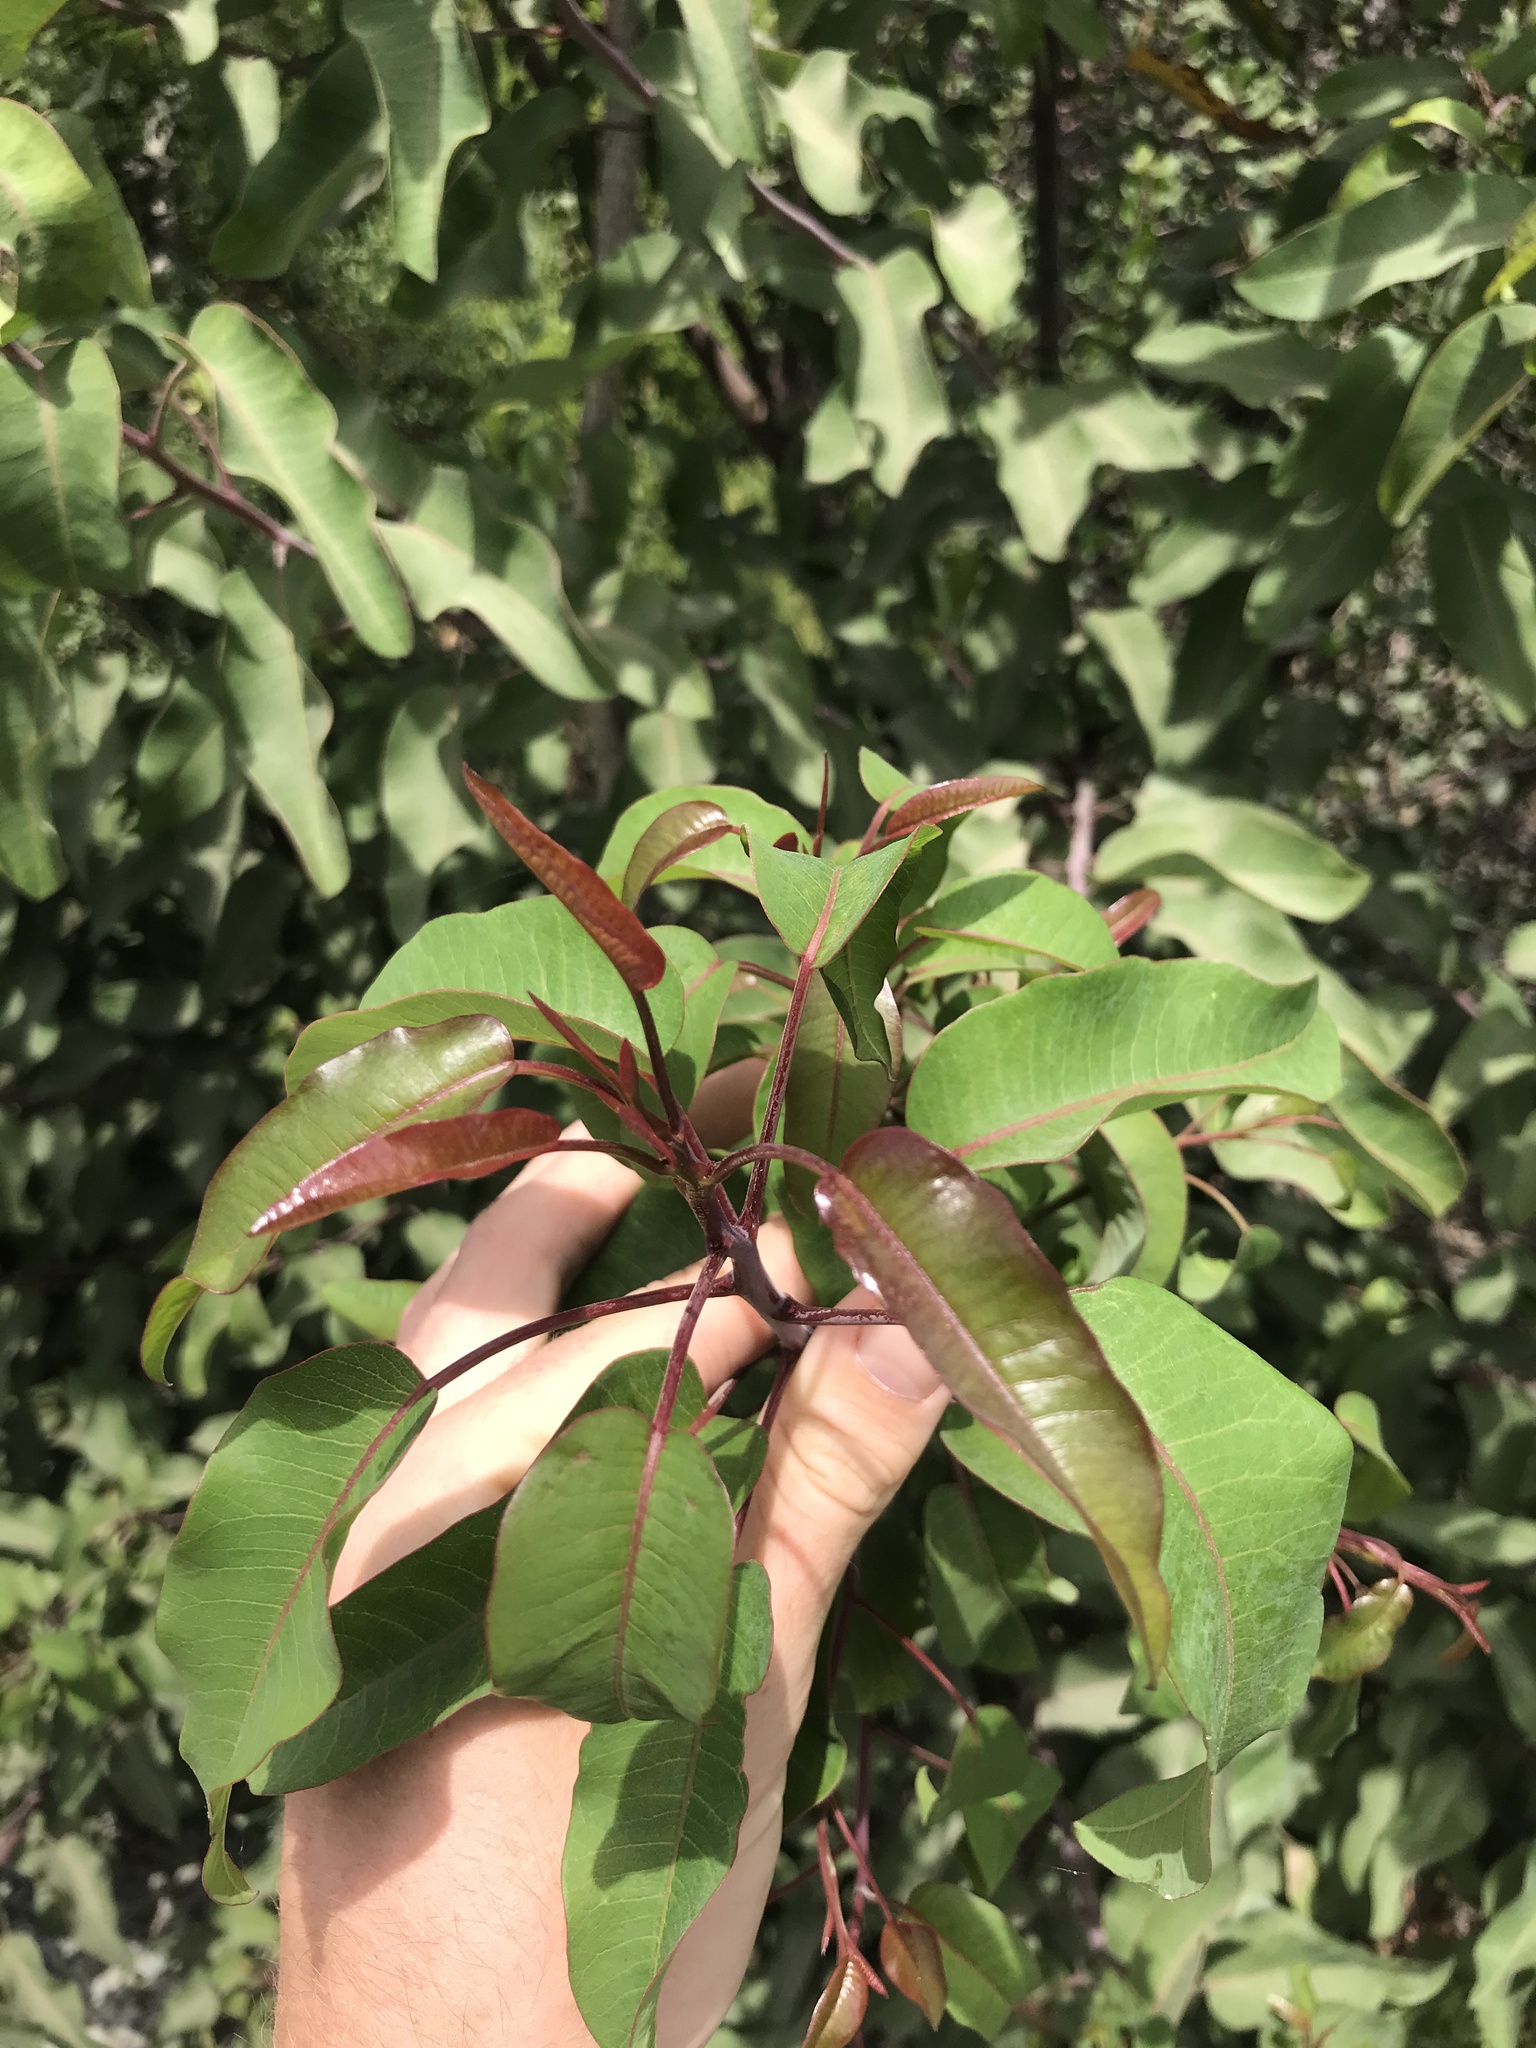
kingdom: Plantae
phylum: Tracheophyta
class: Magnoliopsida
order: Sapindales
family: Anacardiaceae
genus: Malosma
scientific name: Malosma laurina
